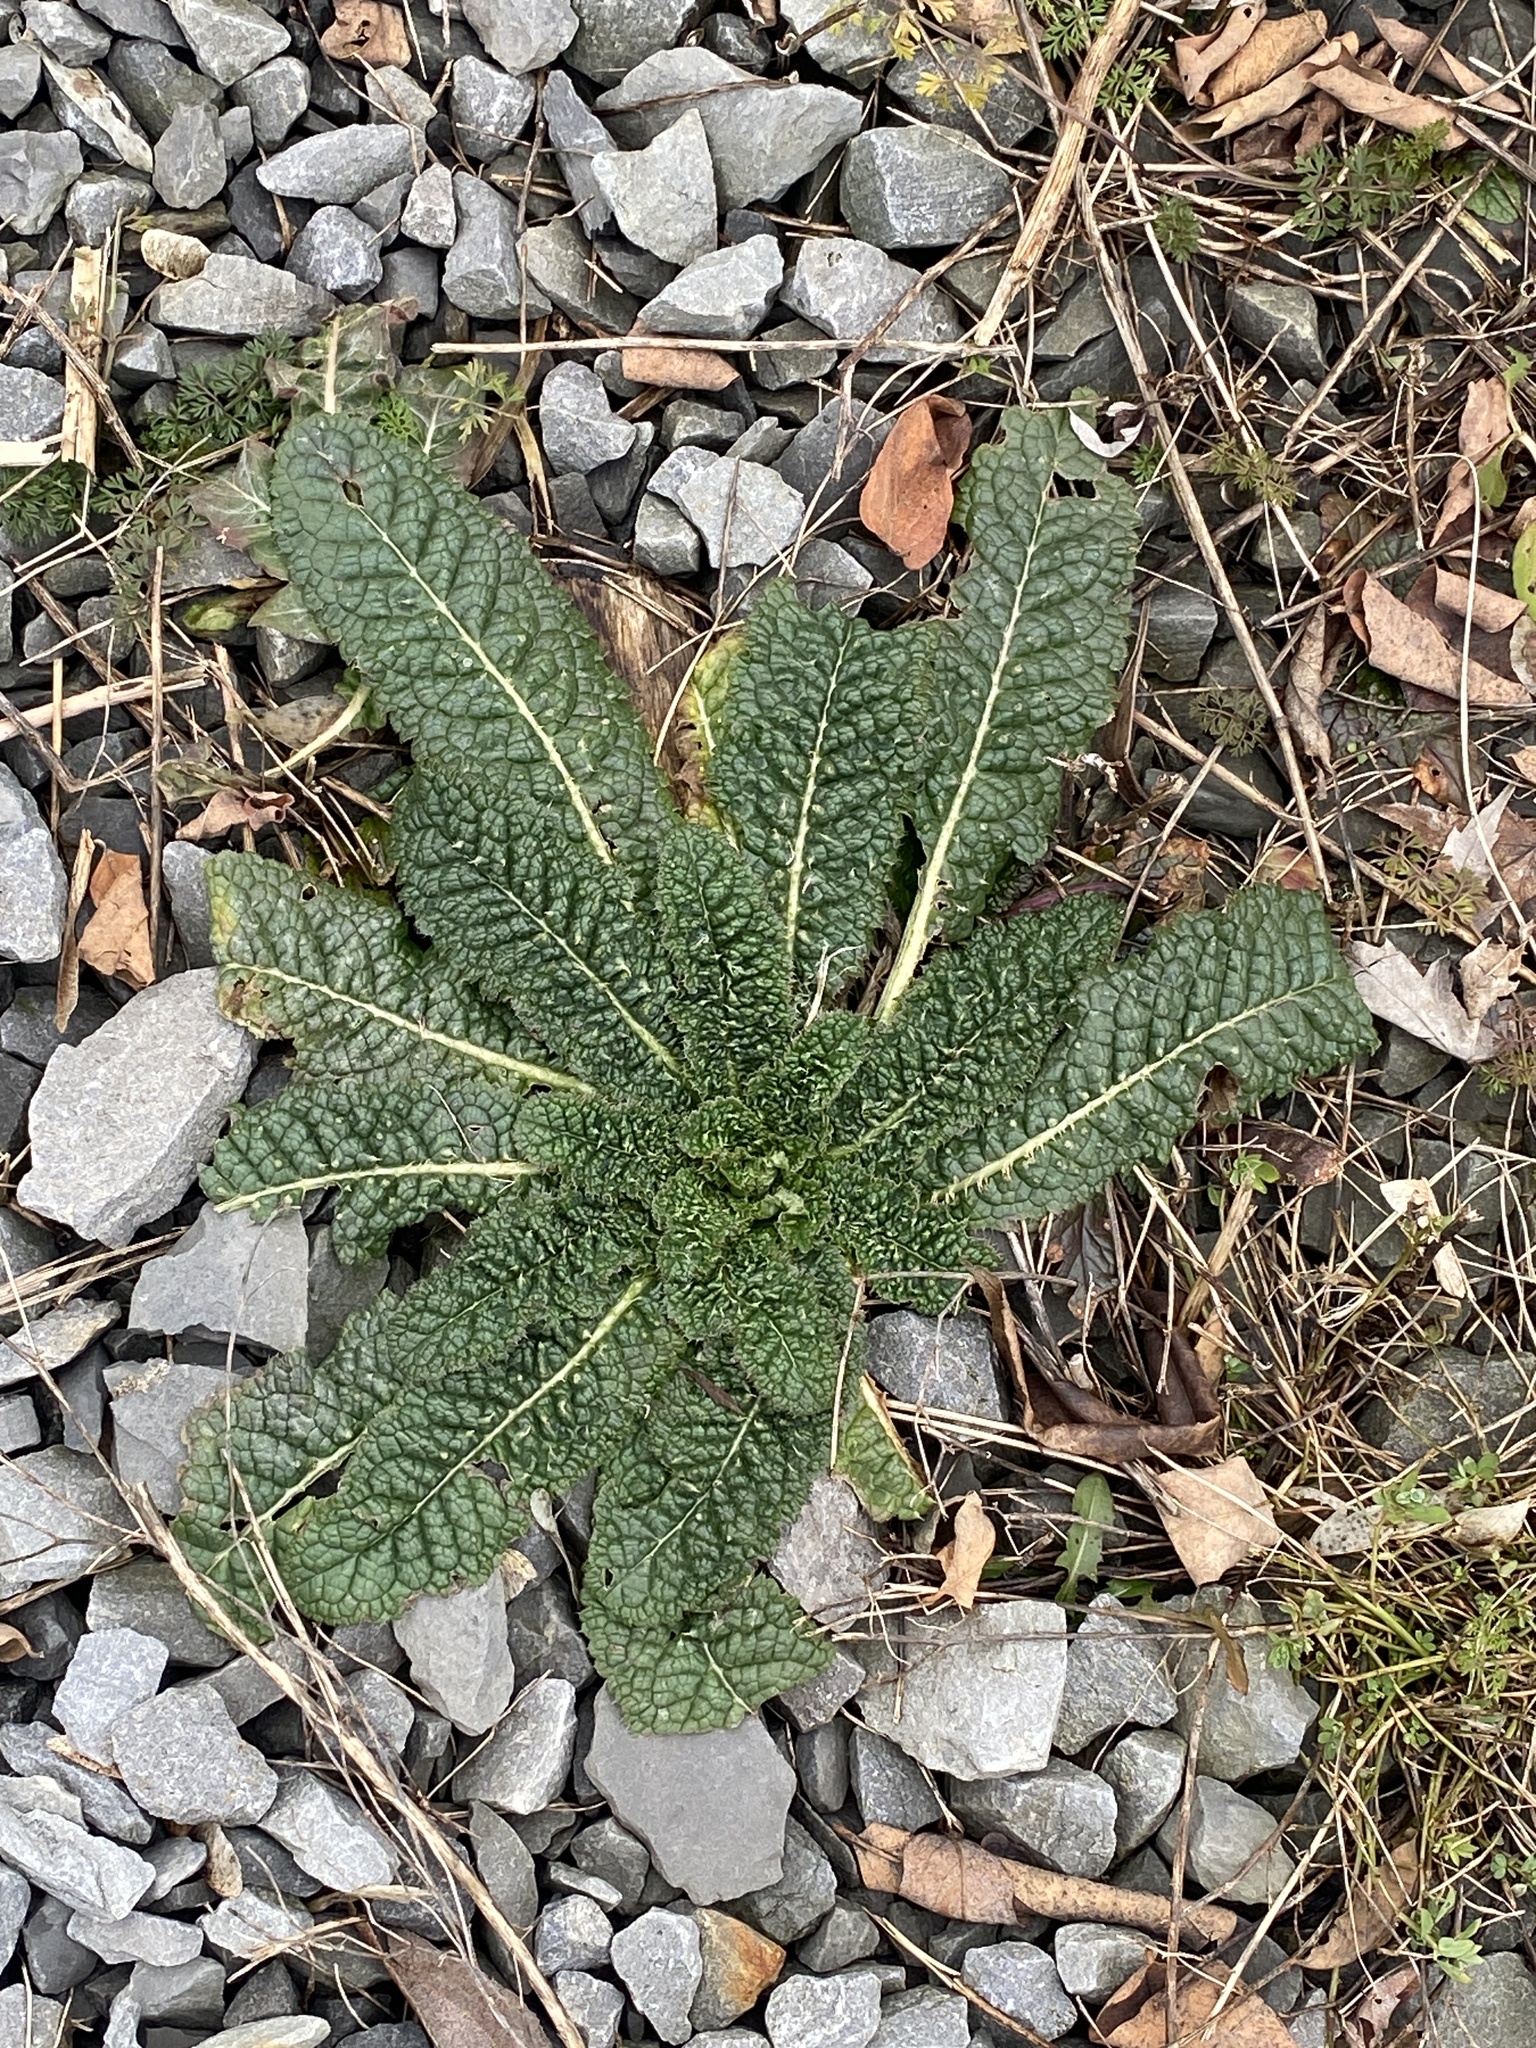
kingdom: Plantae
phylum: Tracheophyta
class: Magnoliopsida
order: Dipsacales
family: Caprifoliaceae
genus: Dipsacus
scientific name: Dipsacus fullonum
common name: Teasel
